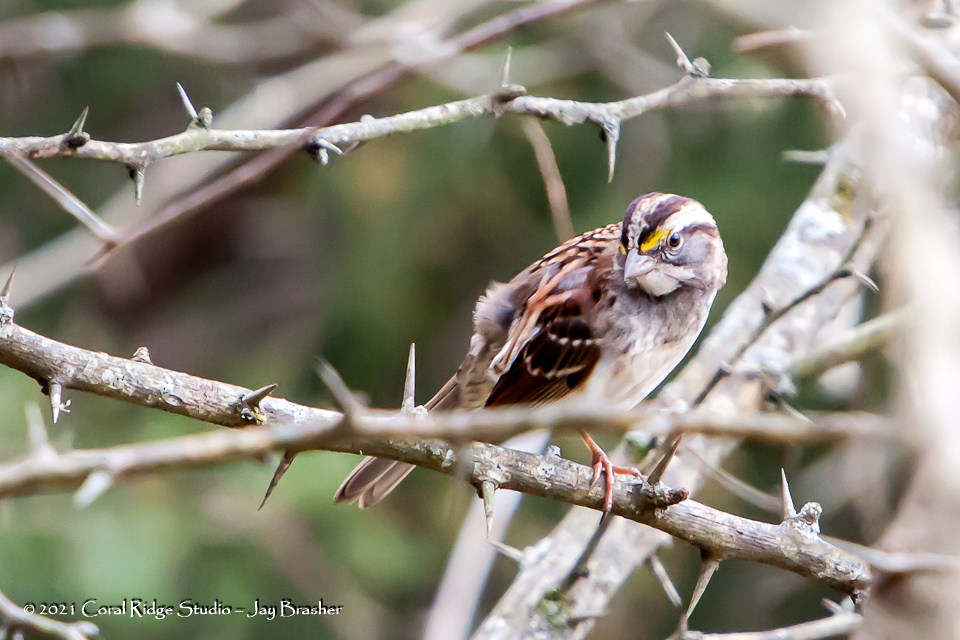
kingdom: Animalia
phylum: Chordata
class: Aves
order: Passeriformes
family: Passerellidae
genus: Zonotrichia
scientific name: Zonotrichia albicollis
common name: White-throated sparrow
